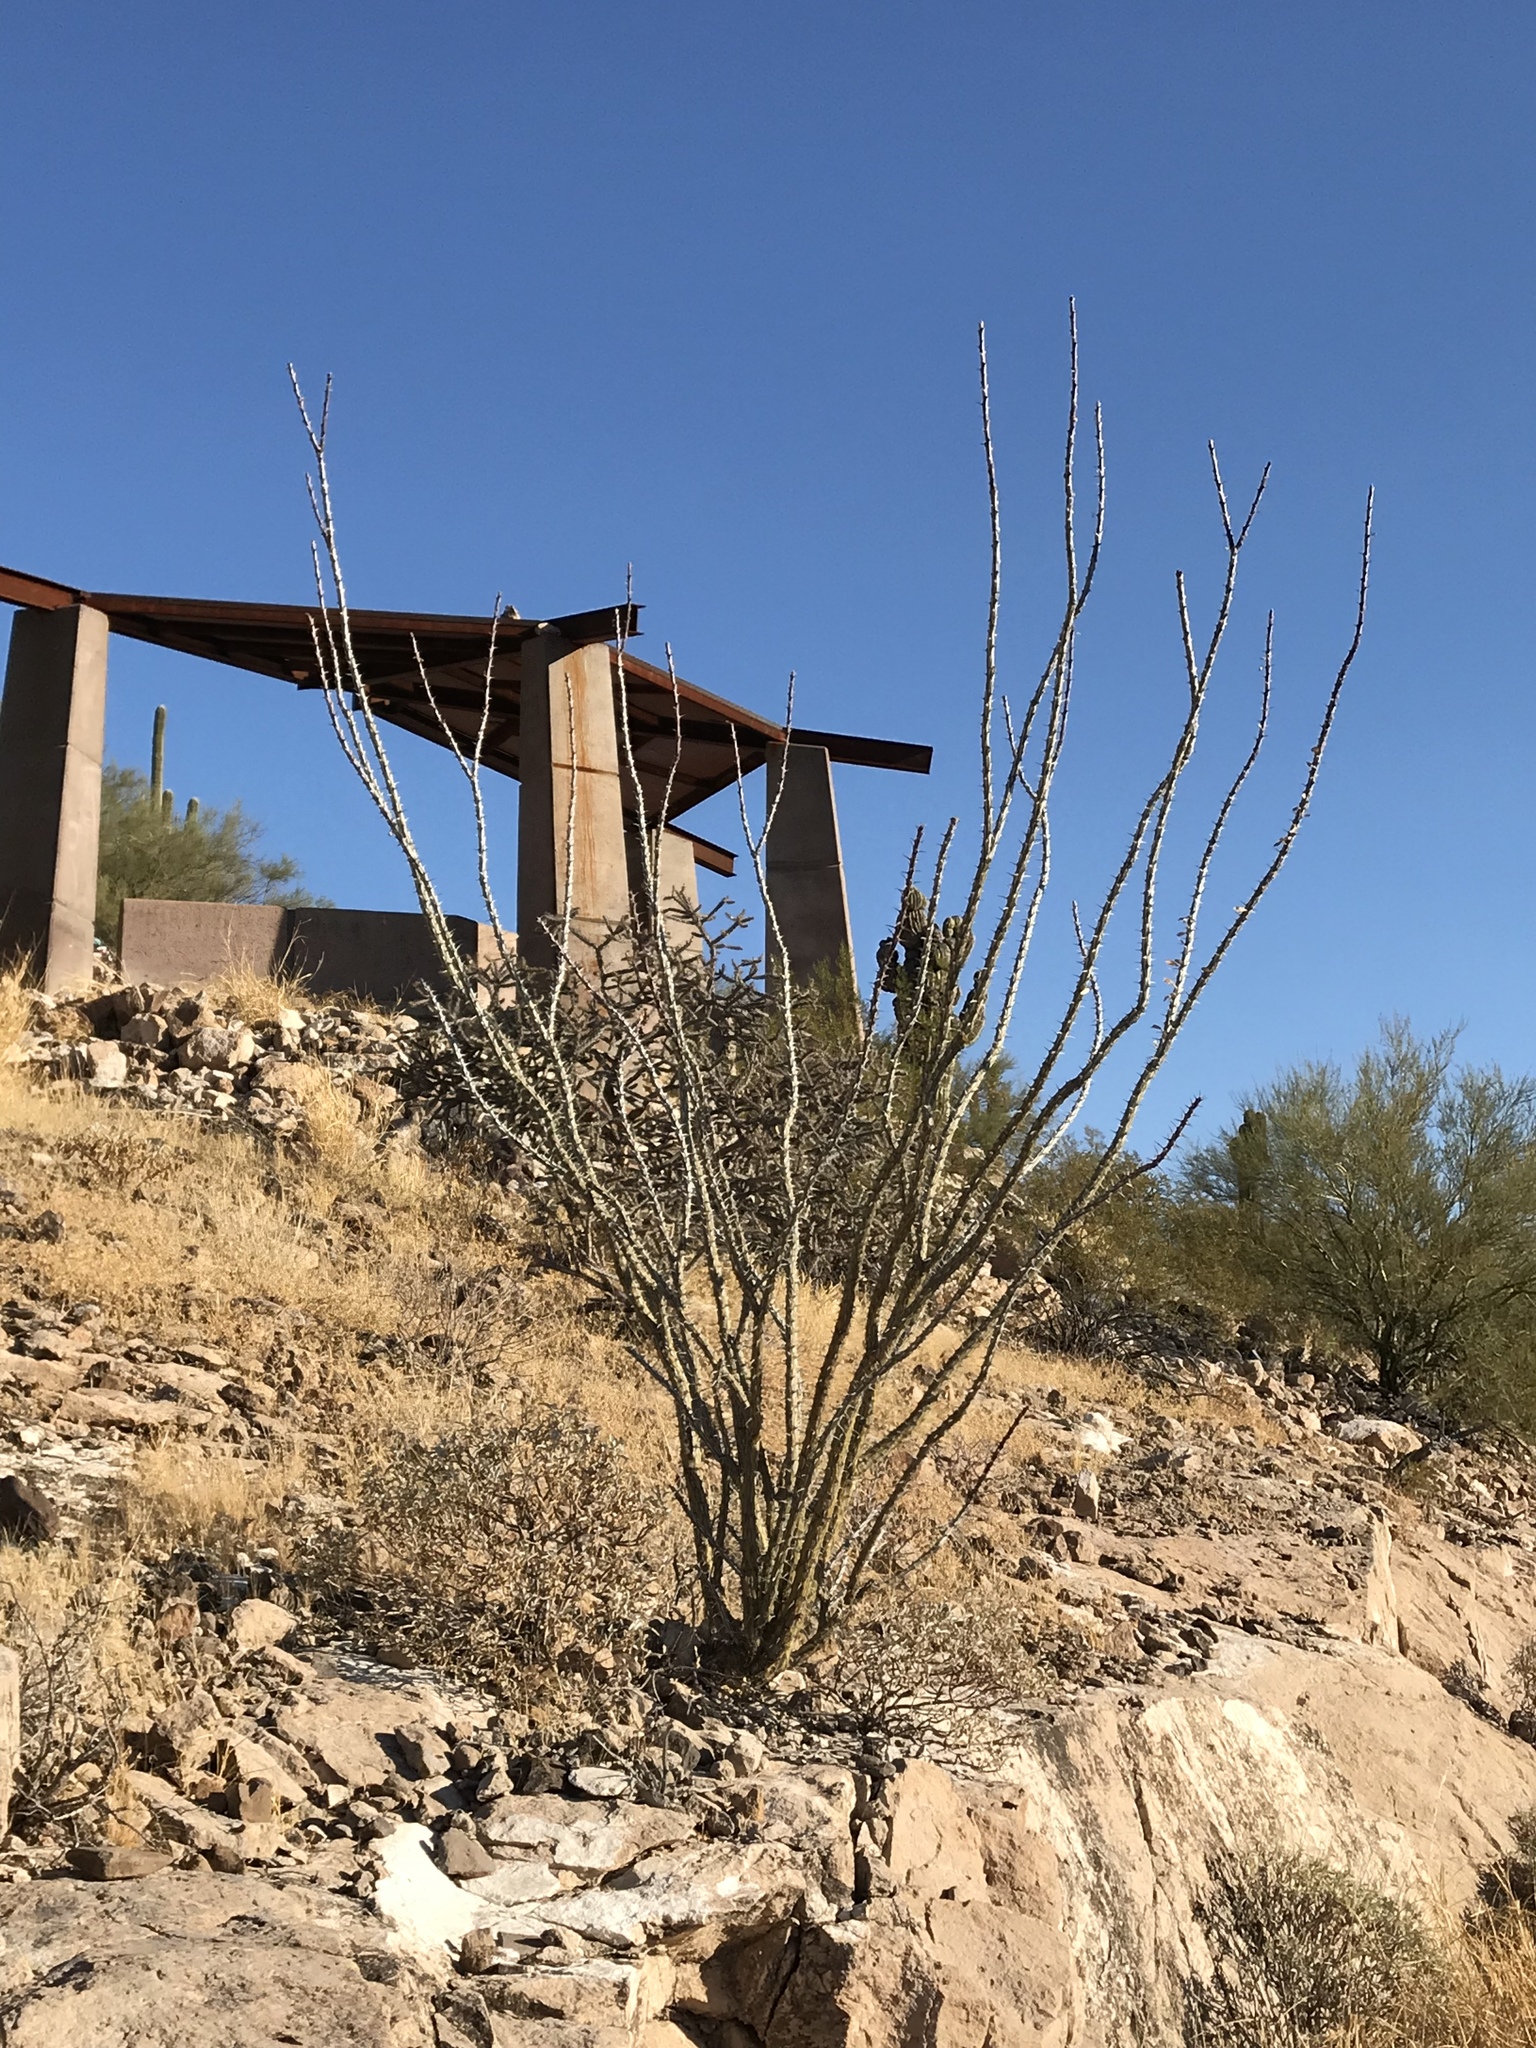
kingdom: Plantae
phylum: Tracheophyta
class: Magnoliopsida
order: Ericales
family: Fouquieriaceae
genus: Fouquieria
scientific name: Fouquieria splendens
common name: Vine-cactus
